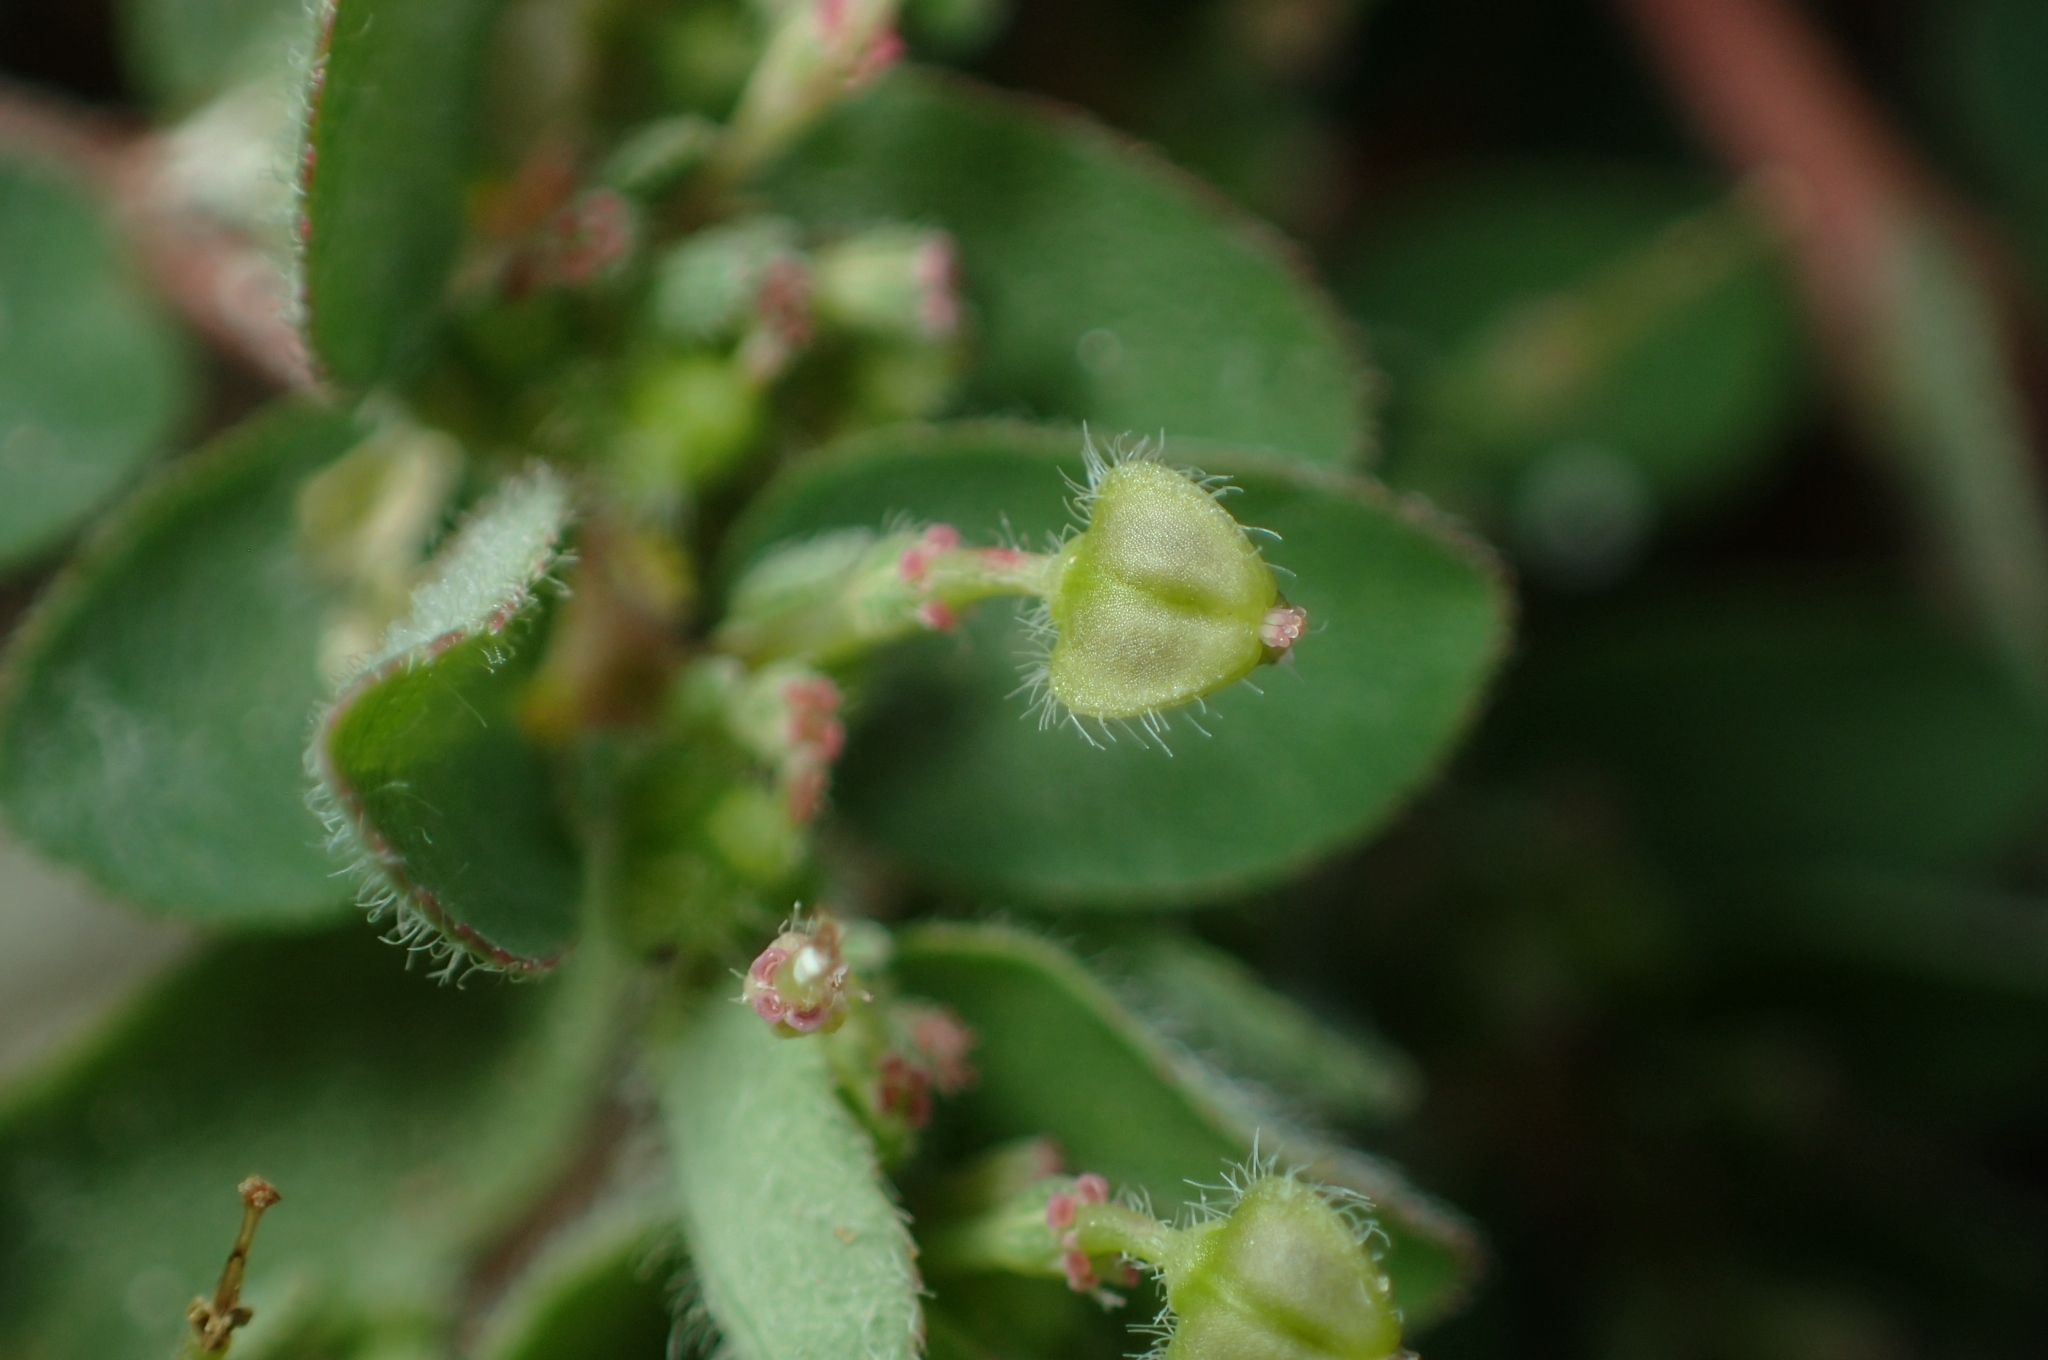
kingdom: Plantae
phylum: Tracheophyta
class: Magnoliopsida
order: Malpighiales
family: Euphorbiaceae
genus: Euphorbia
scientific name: Euphorbia prostrata
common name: Prostrate sandmat
